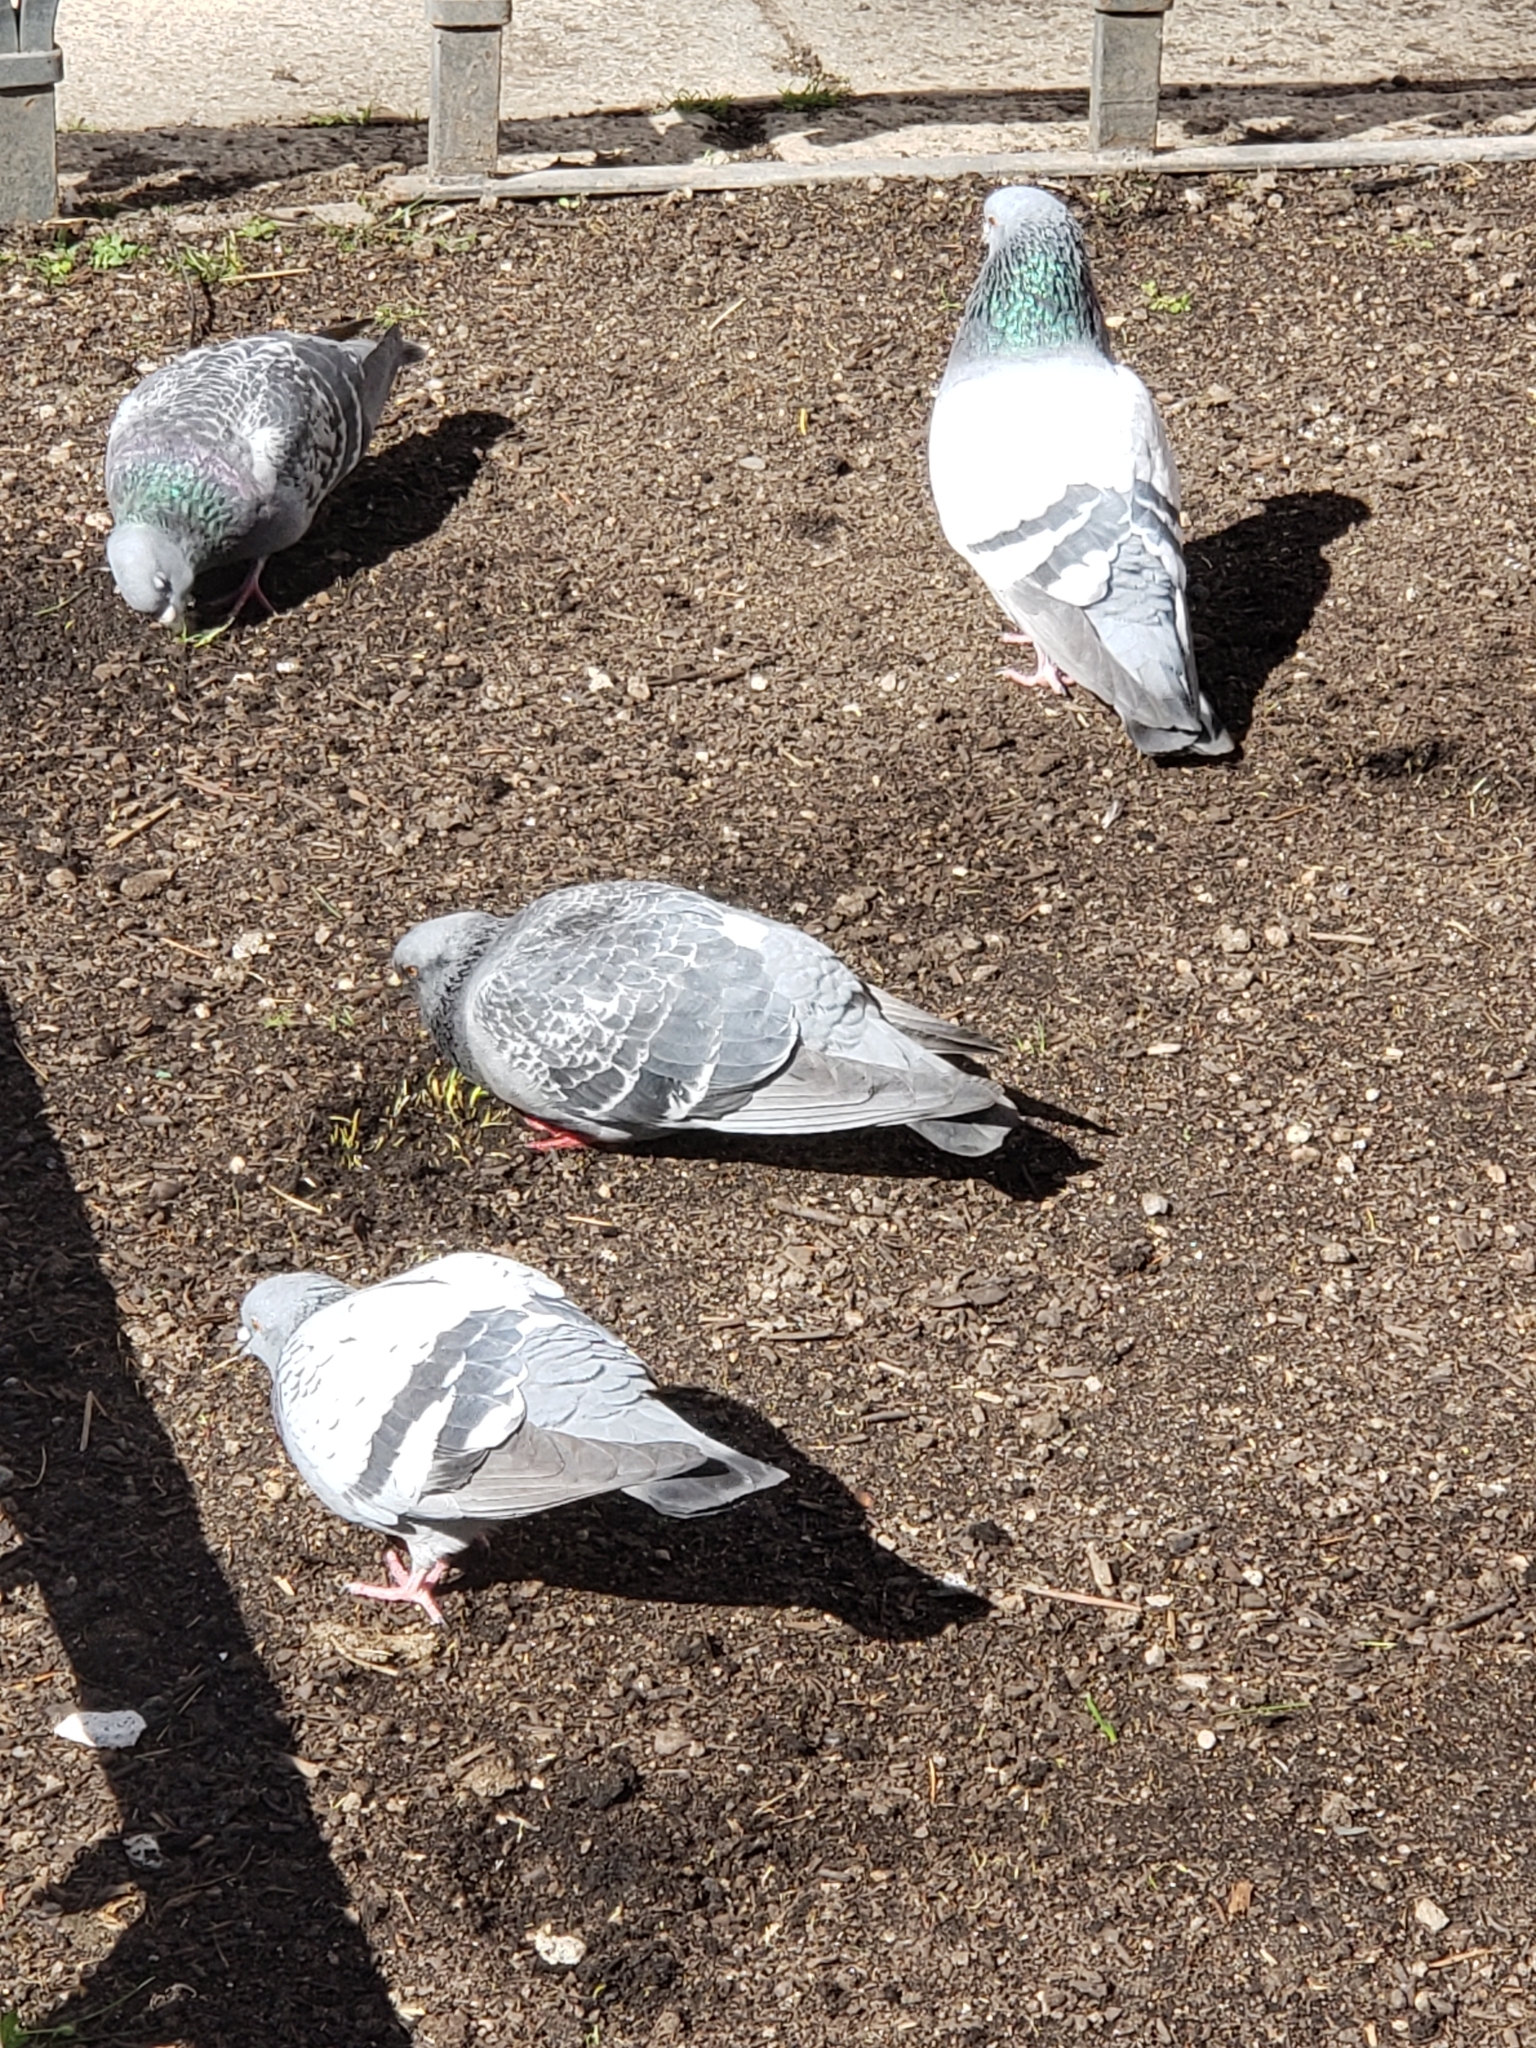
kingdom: Animalia
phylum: Chordata
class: Aves
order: Columbiformes
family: Columbidae
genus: Columba
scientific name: Columba livia
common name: Rock pigeon
